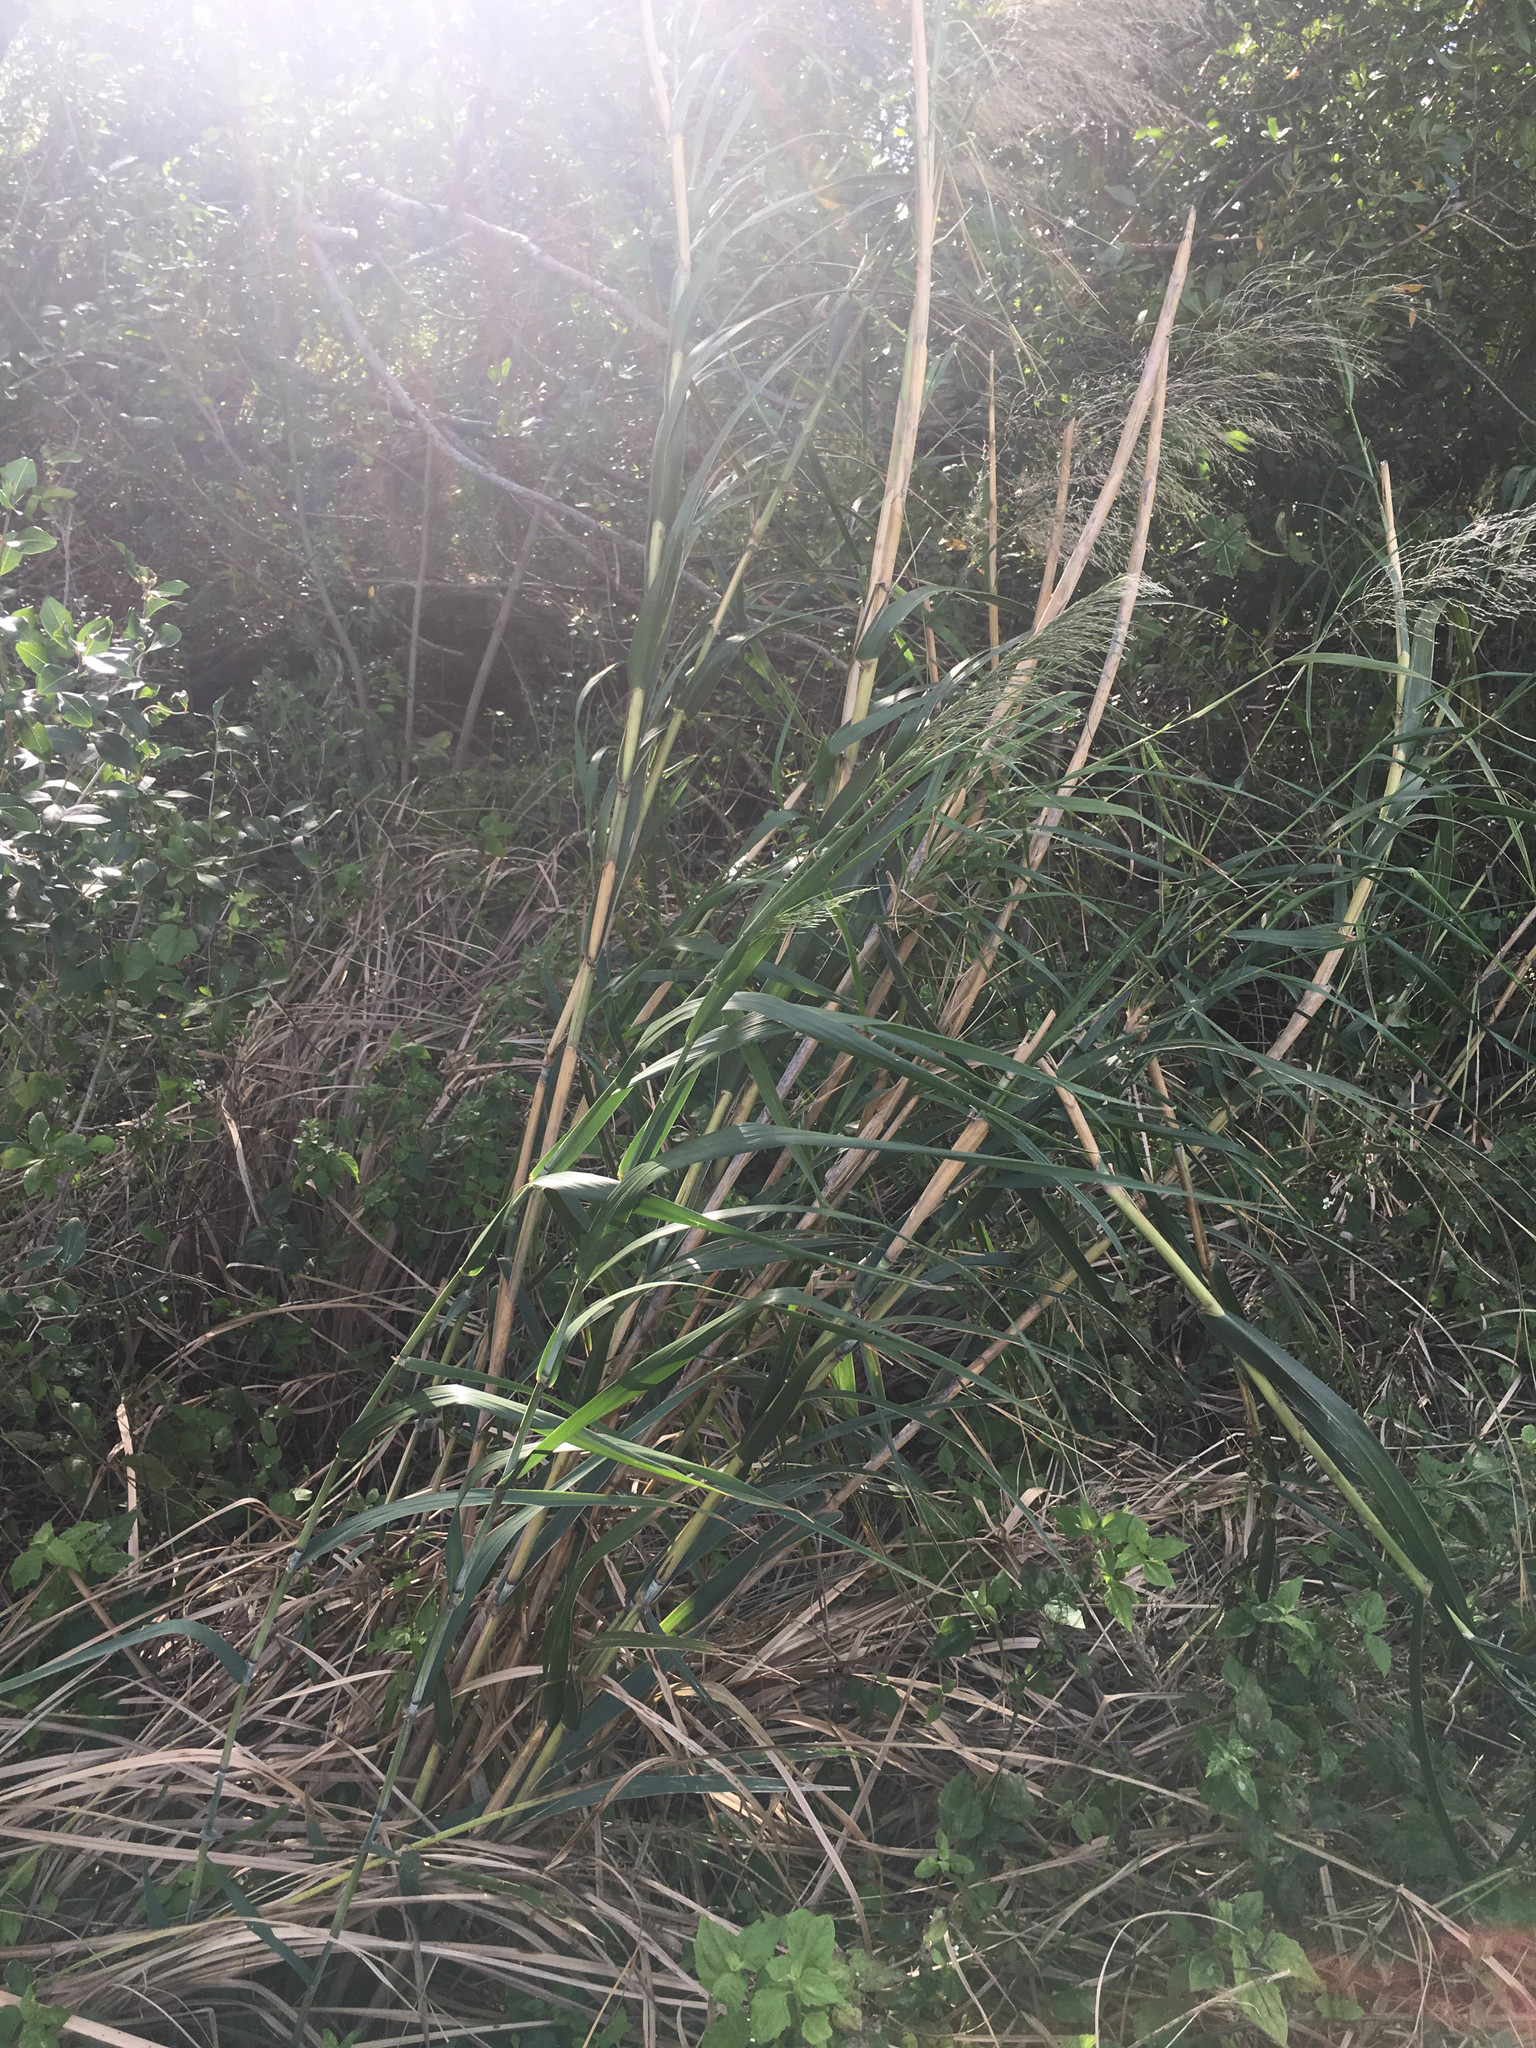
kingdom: Plantae
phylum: Tracheophyta
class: Liliopsida
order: Poales
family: Poaceae
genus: Neyraudia
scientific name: Neyraudia reynaudiana
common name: Silkreed
